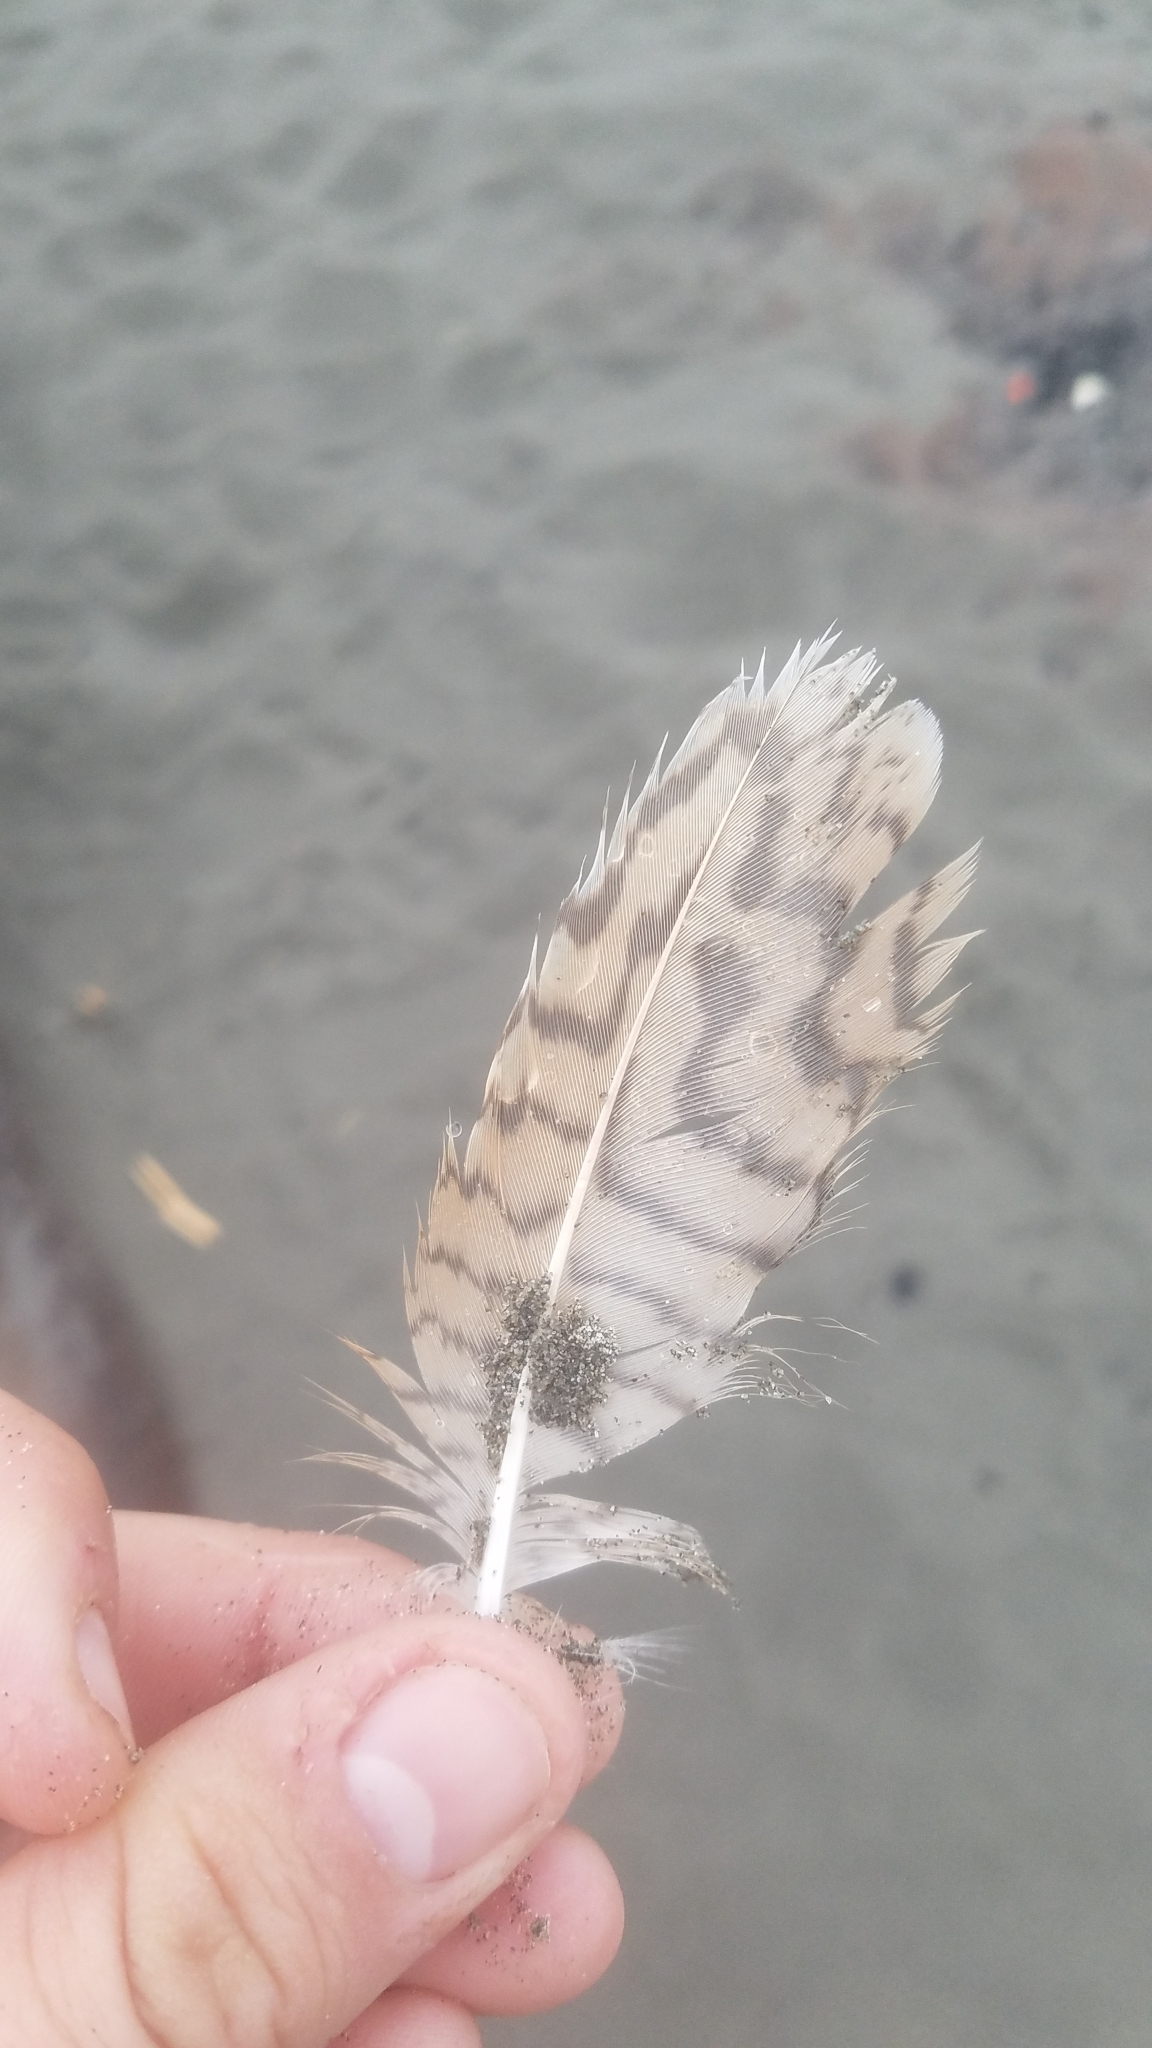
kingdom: Animalia
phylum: Chordata
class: Aves
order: Charadriiformes
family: Scolopacidae
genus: Limosa
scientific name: Limosa fedoa
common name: Marbled godwit
